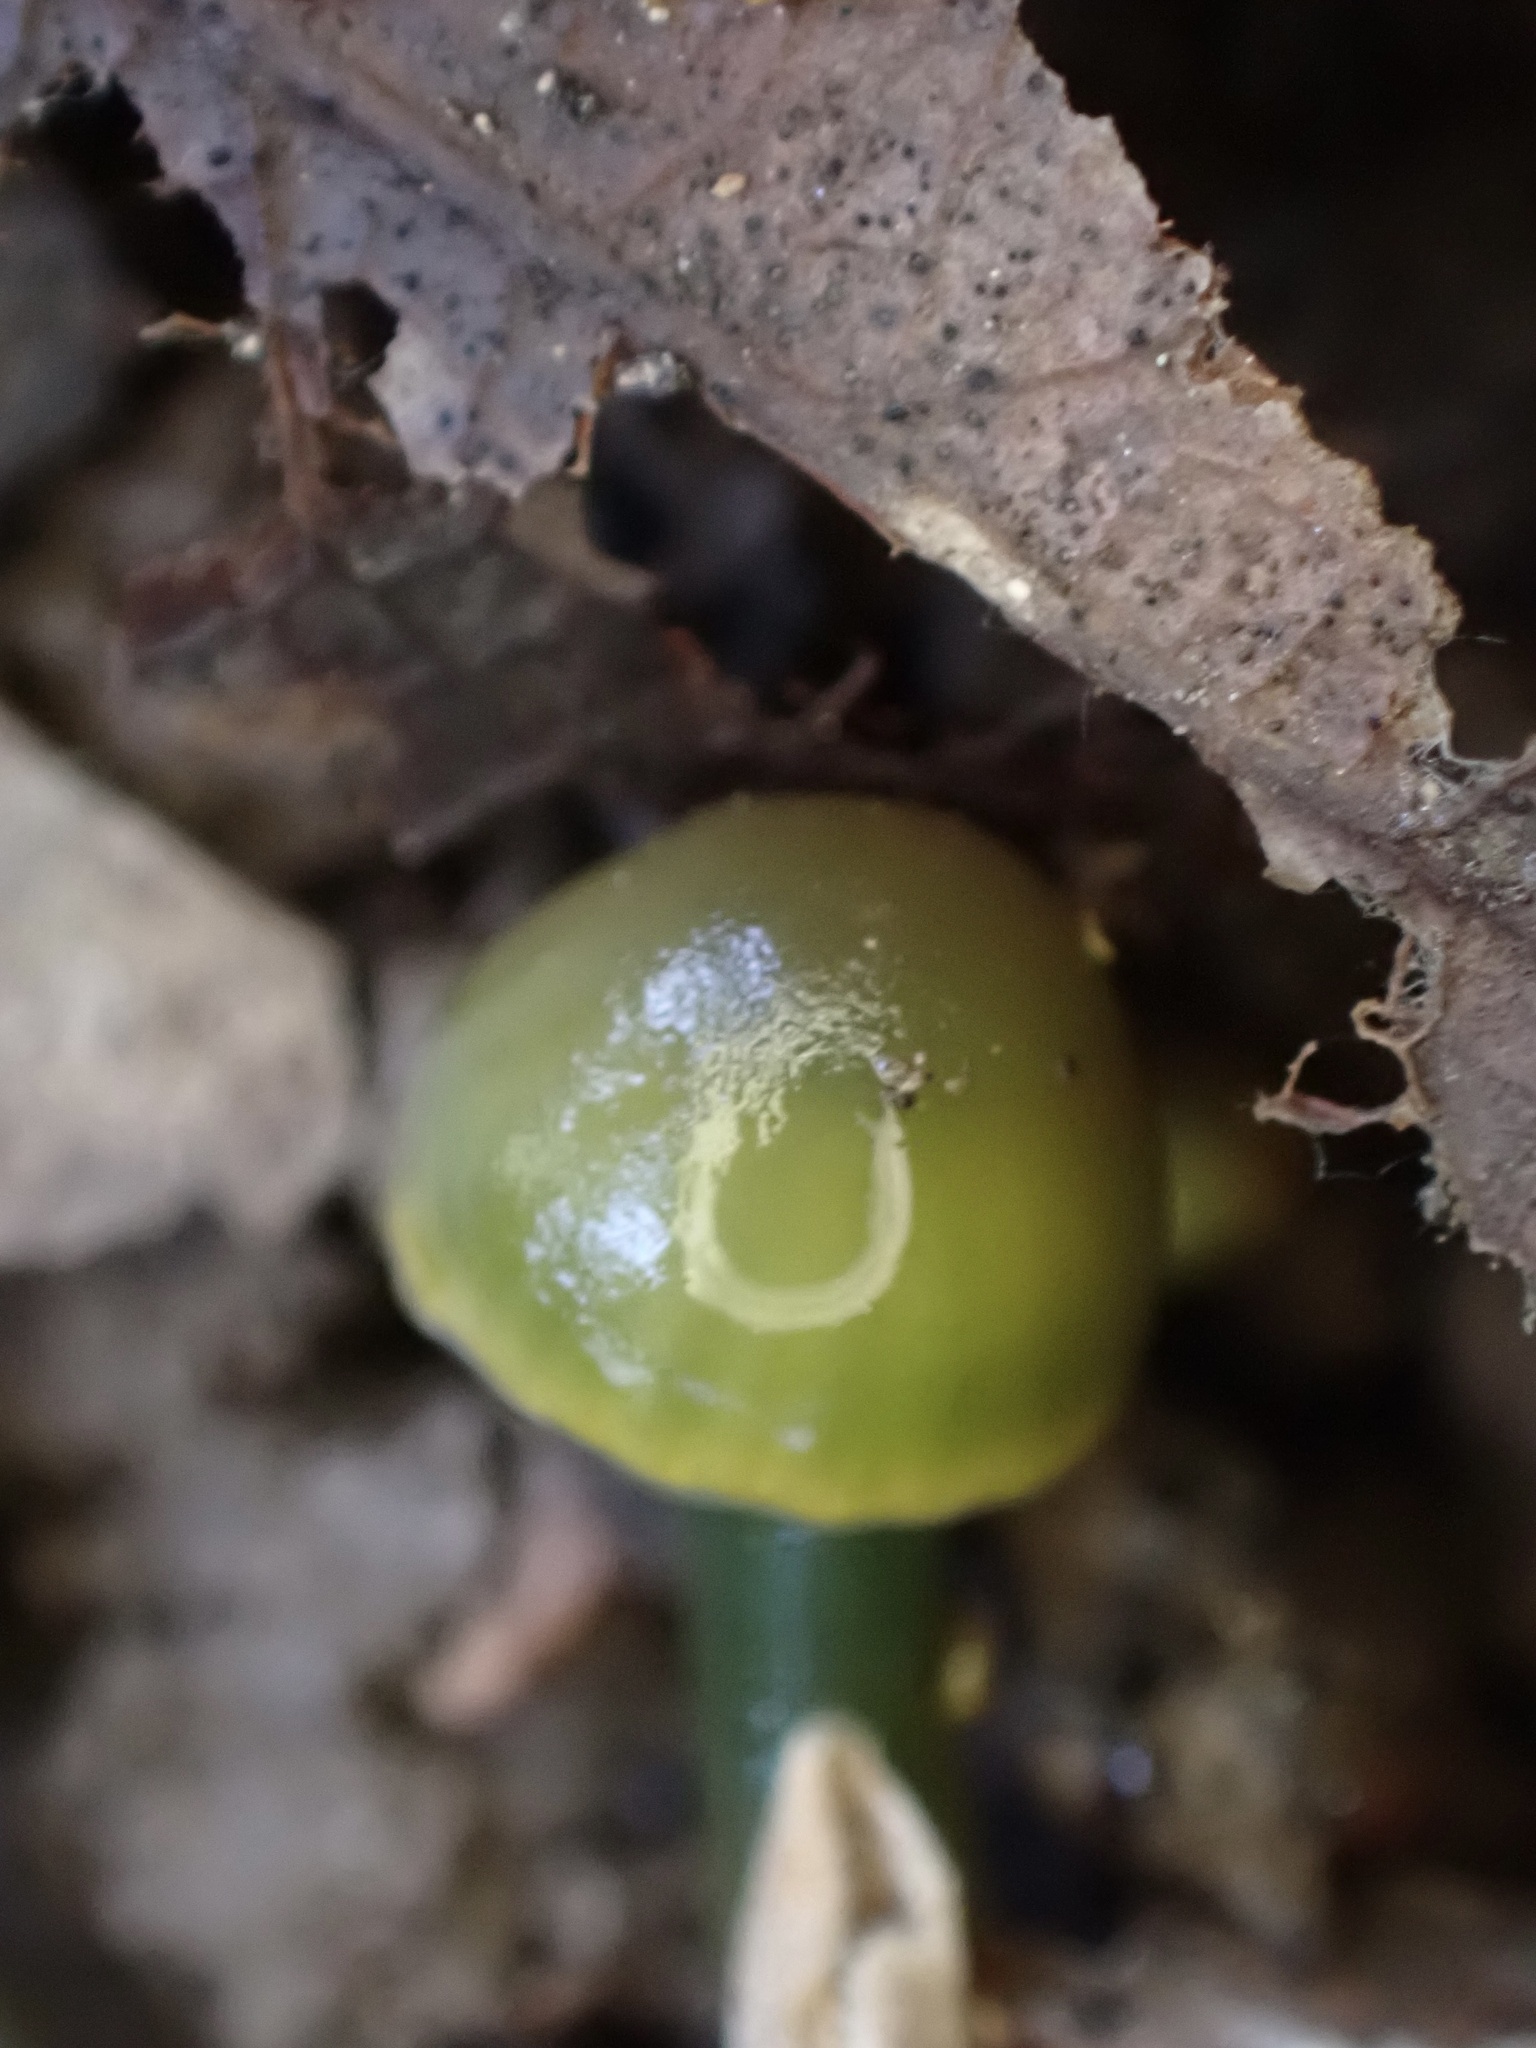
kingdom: Fungi
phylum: Basidiomycota
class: Agaricomycetes
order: Agaricales
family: Hygrophoraceae
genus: Gliophorus
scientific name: Gliophorus psittacinus
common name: Parrot wax-cap
